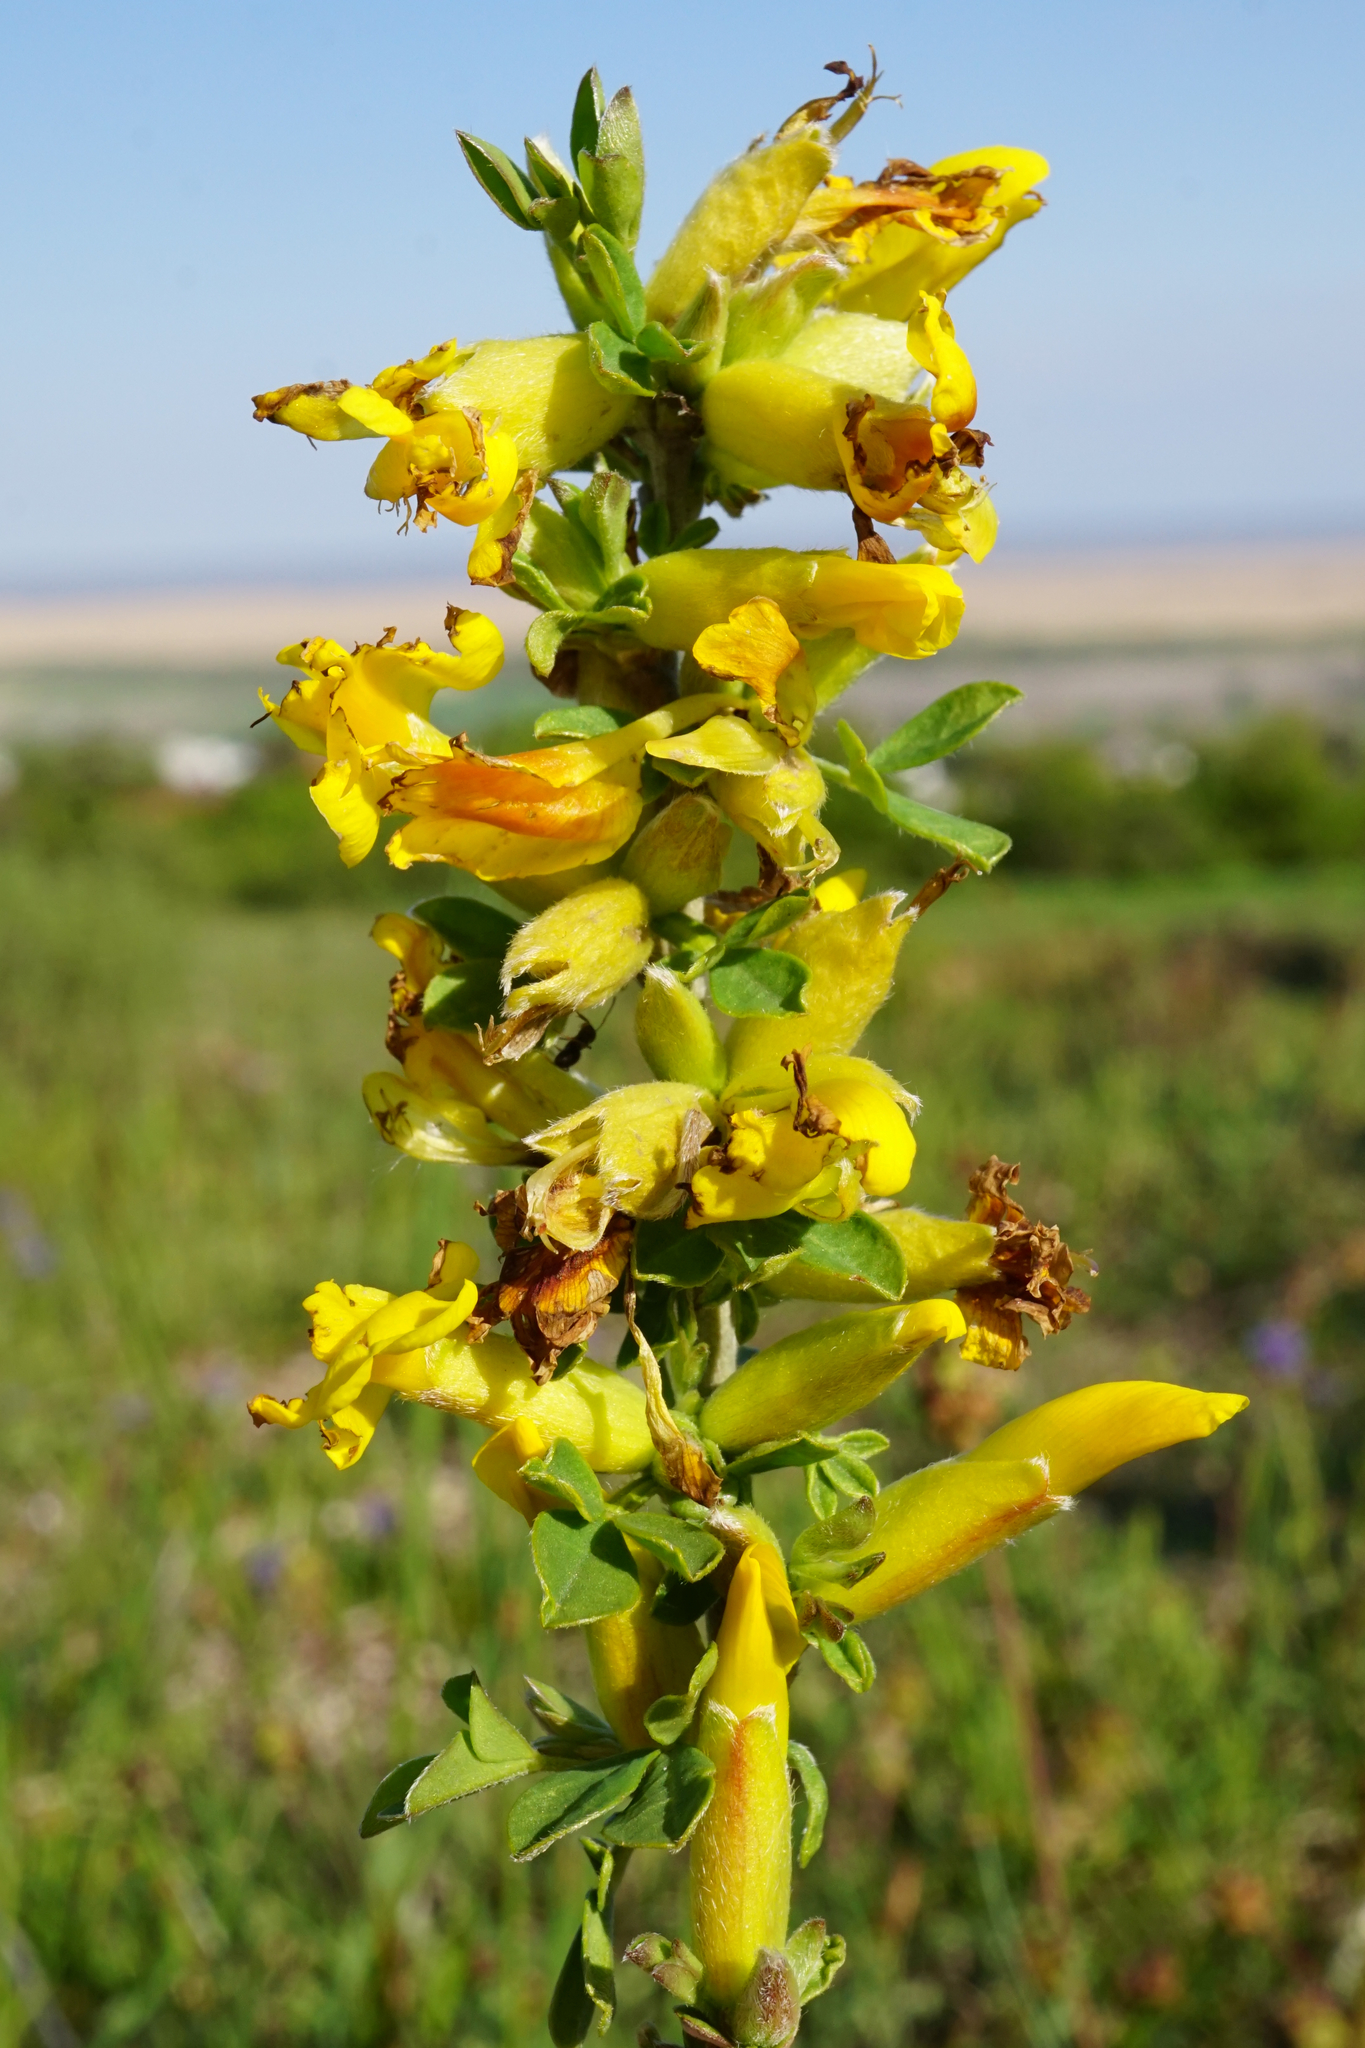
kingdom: Plantae
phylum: Tracheophyta
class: Magnoliopsida
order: Fabales
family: Fabaceae
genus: Chamaecytisus
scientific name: Chamaecytisus ratisbonensis
